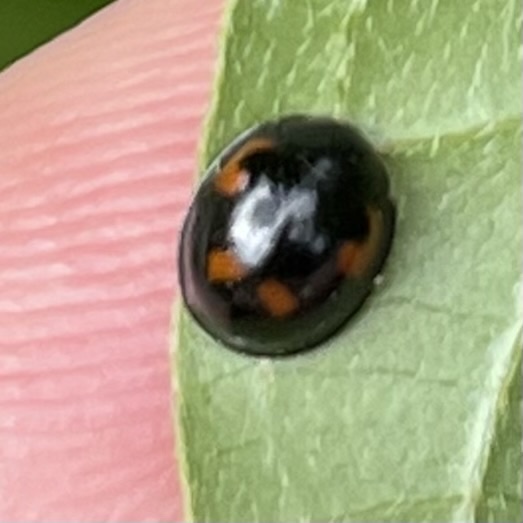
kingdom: Animalia
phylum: Arthropoda
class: Insecta
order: Coleoptera
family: Coccinellidae
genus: Brumus
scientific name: Brumus quadripustulatus
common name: Ladybird beetle
